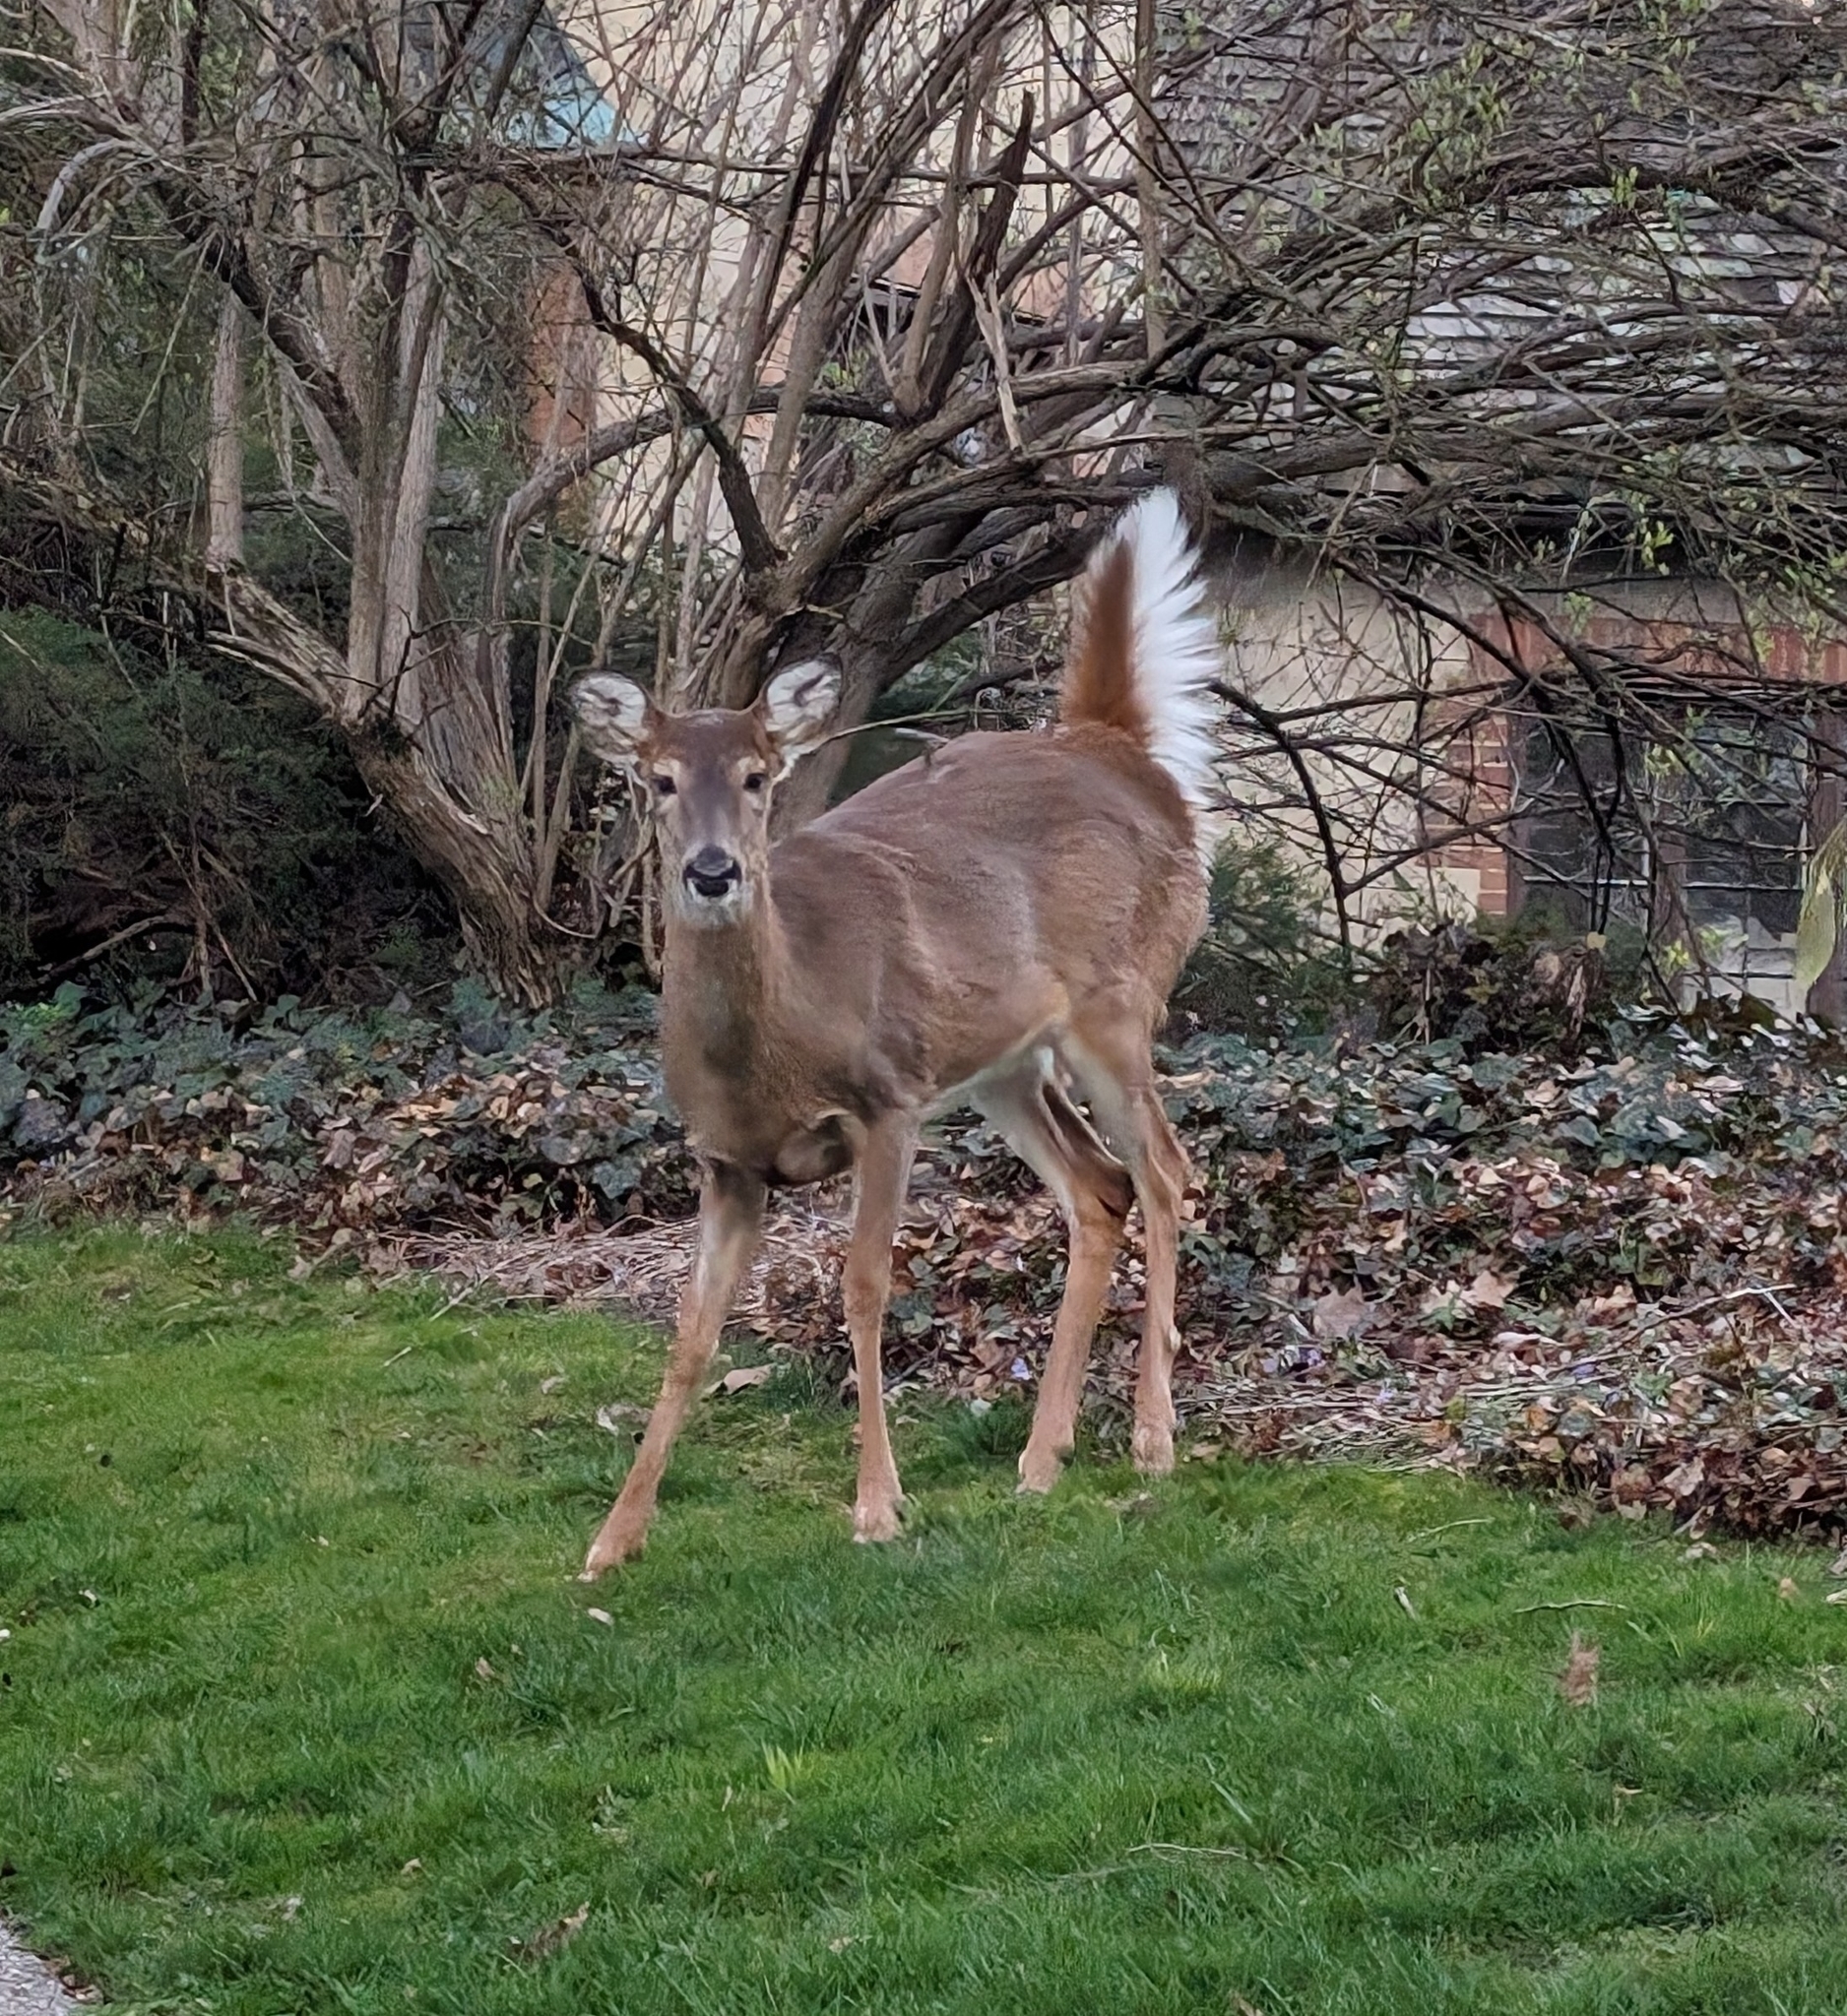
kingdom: Animalia
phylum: Chordata
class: Mammalia
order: Artiodactyla
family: Cervidae
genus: Odocoileus
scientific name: Odocoileus virginianus
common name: White-tailed deer
